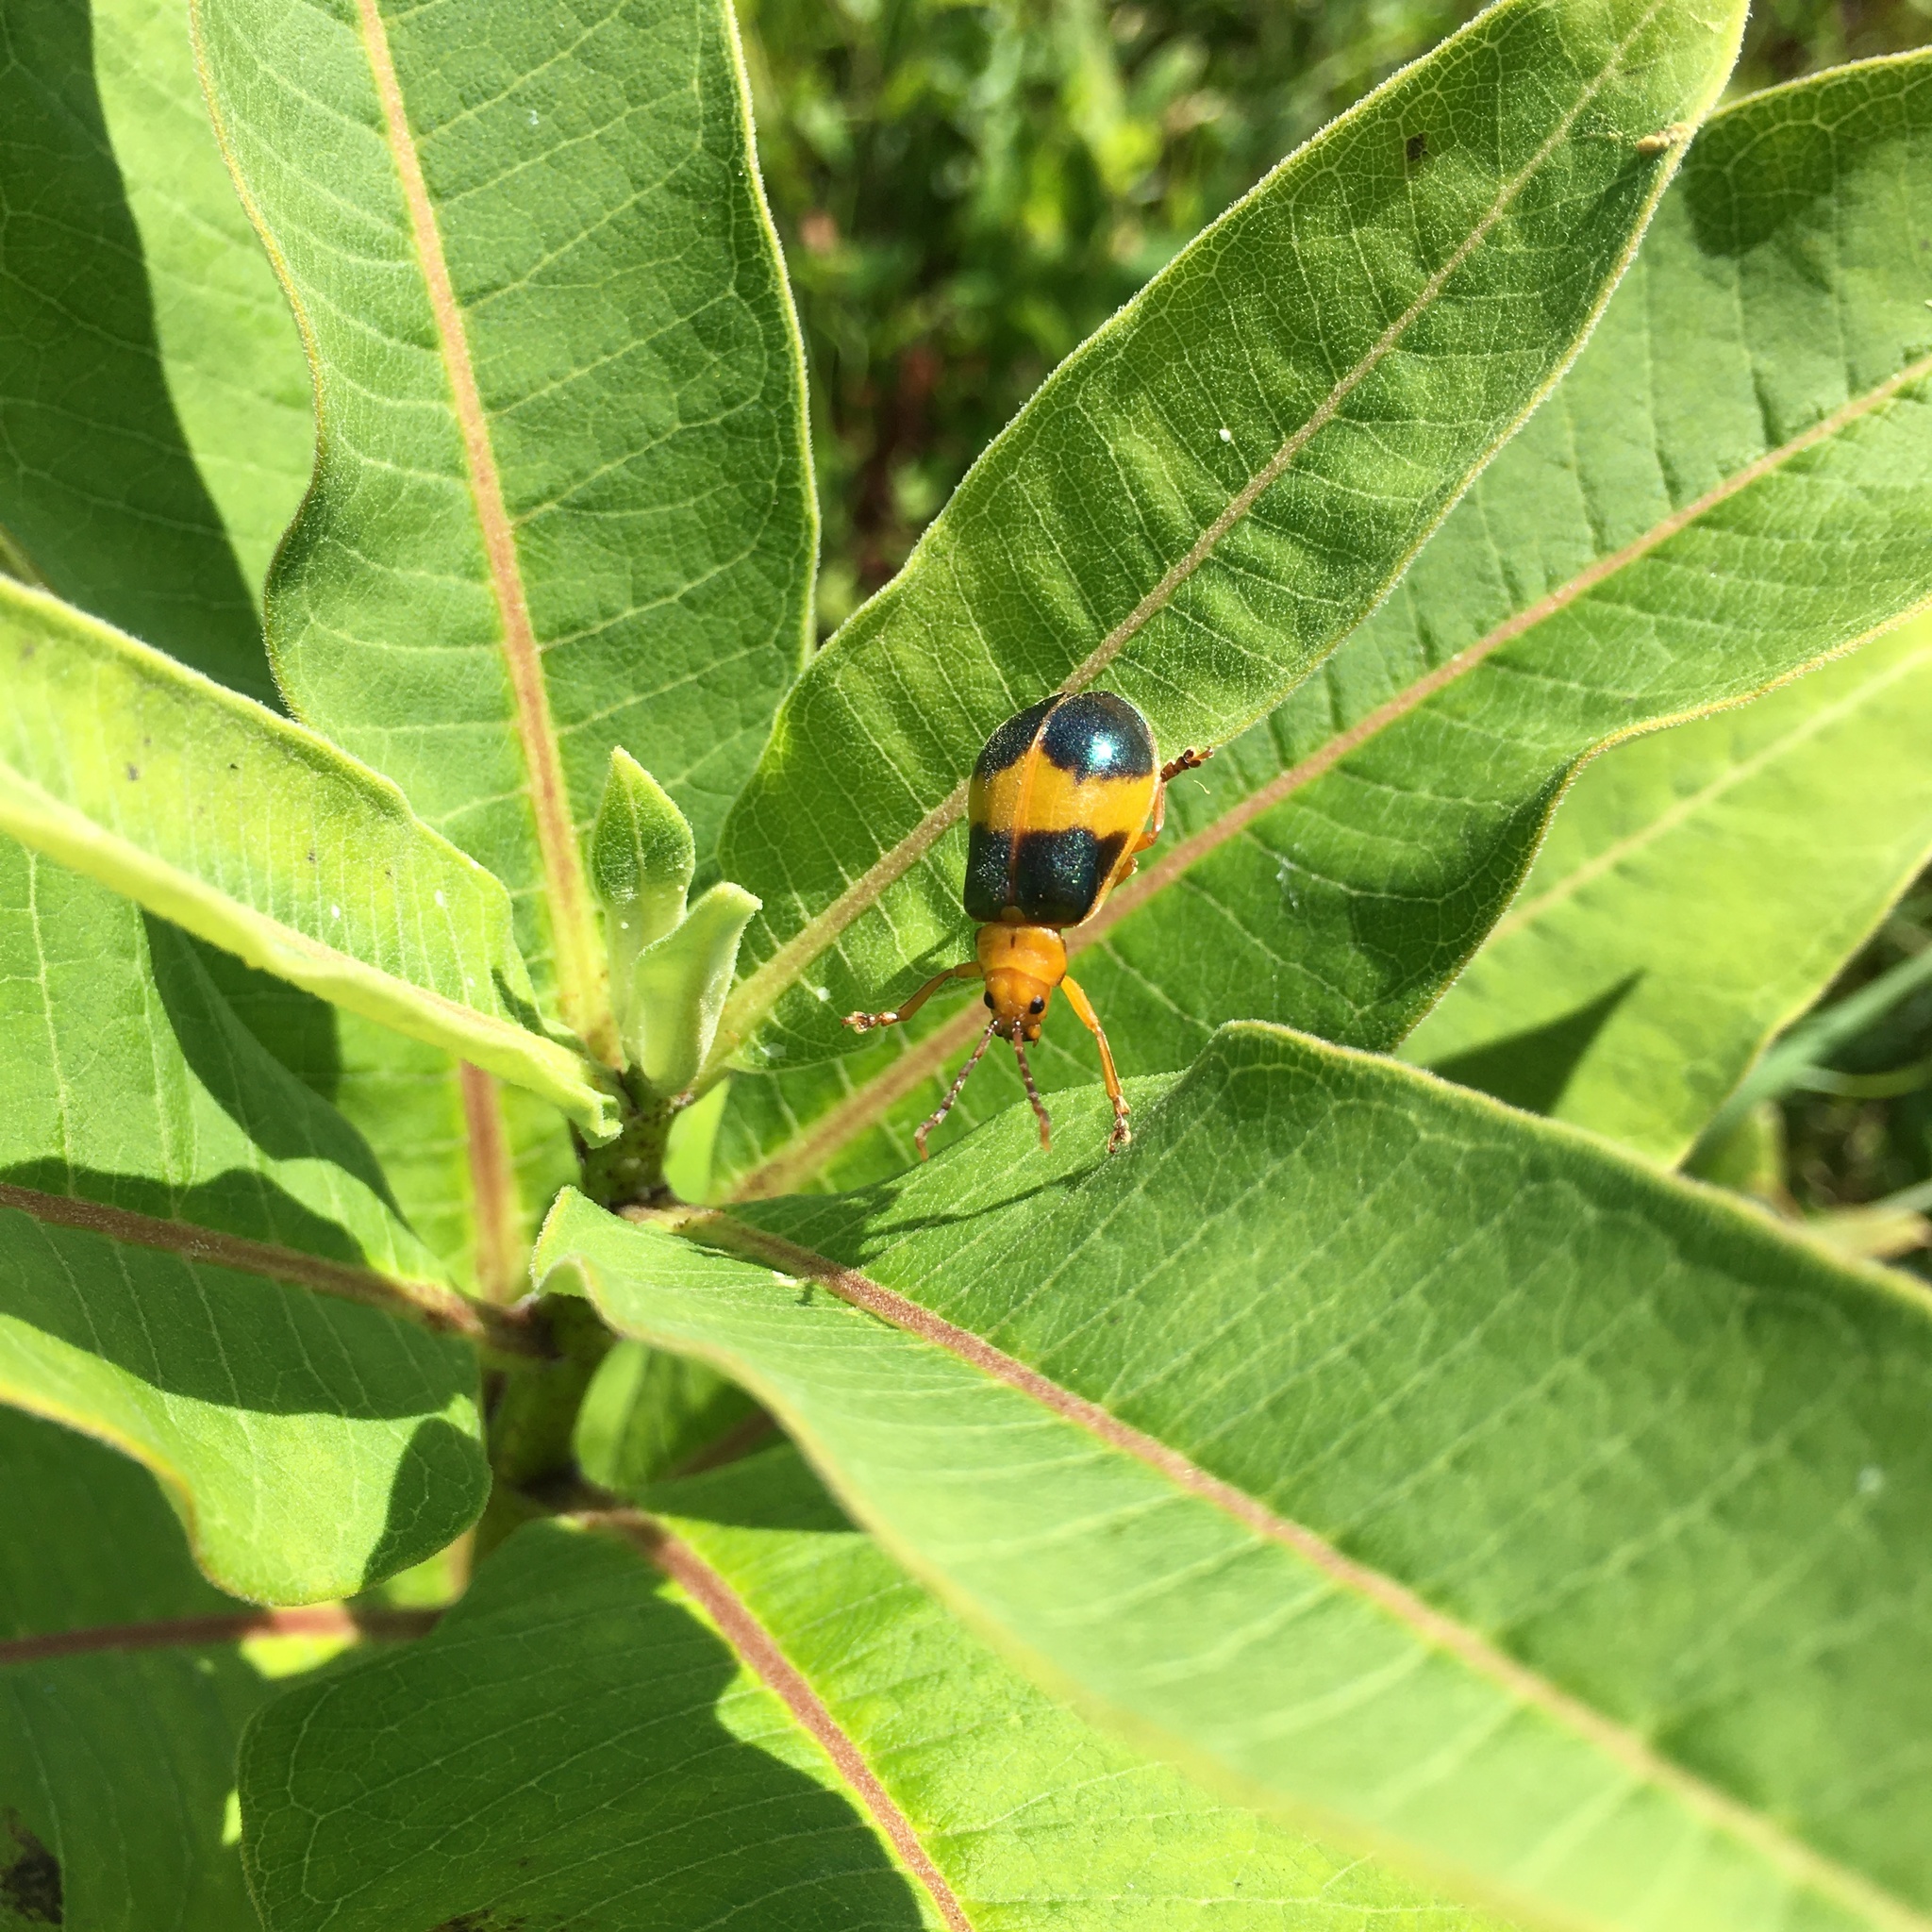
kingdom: Animalia
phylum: Arthropoda
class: Insecta
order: Coleoptera
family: Chrysomelidae
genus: Monocesta
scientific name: Monocesta coryli
